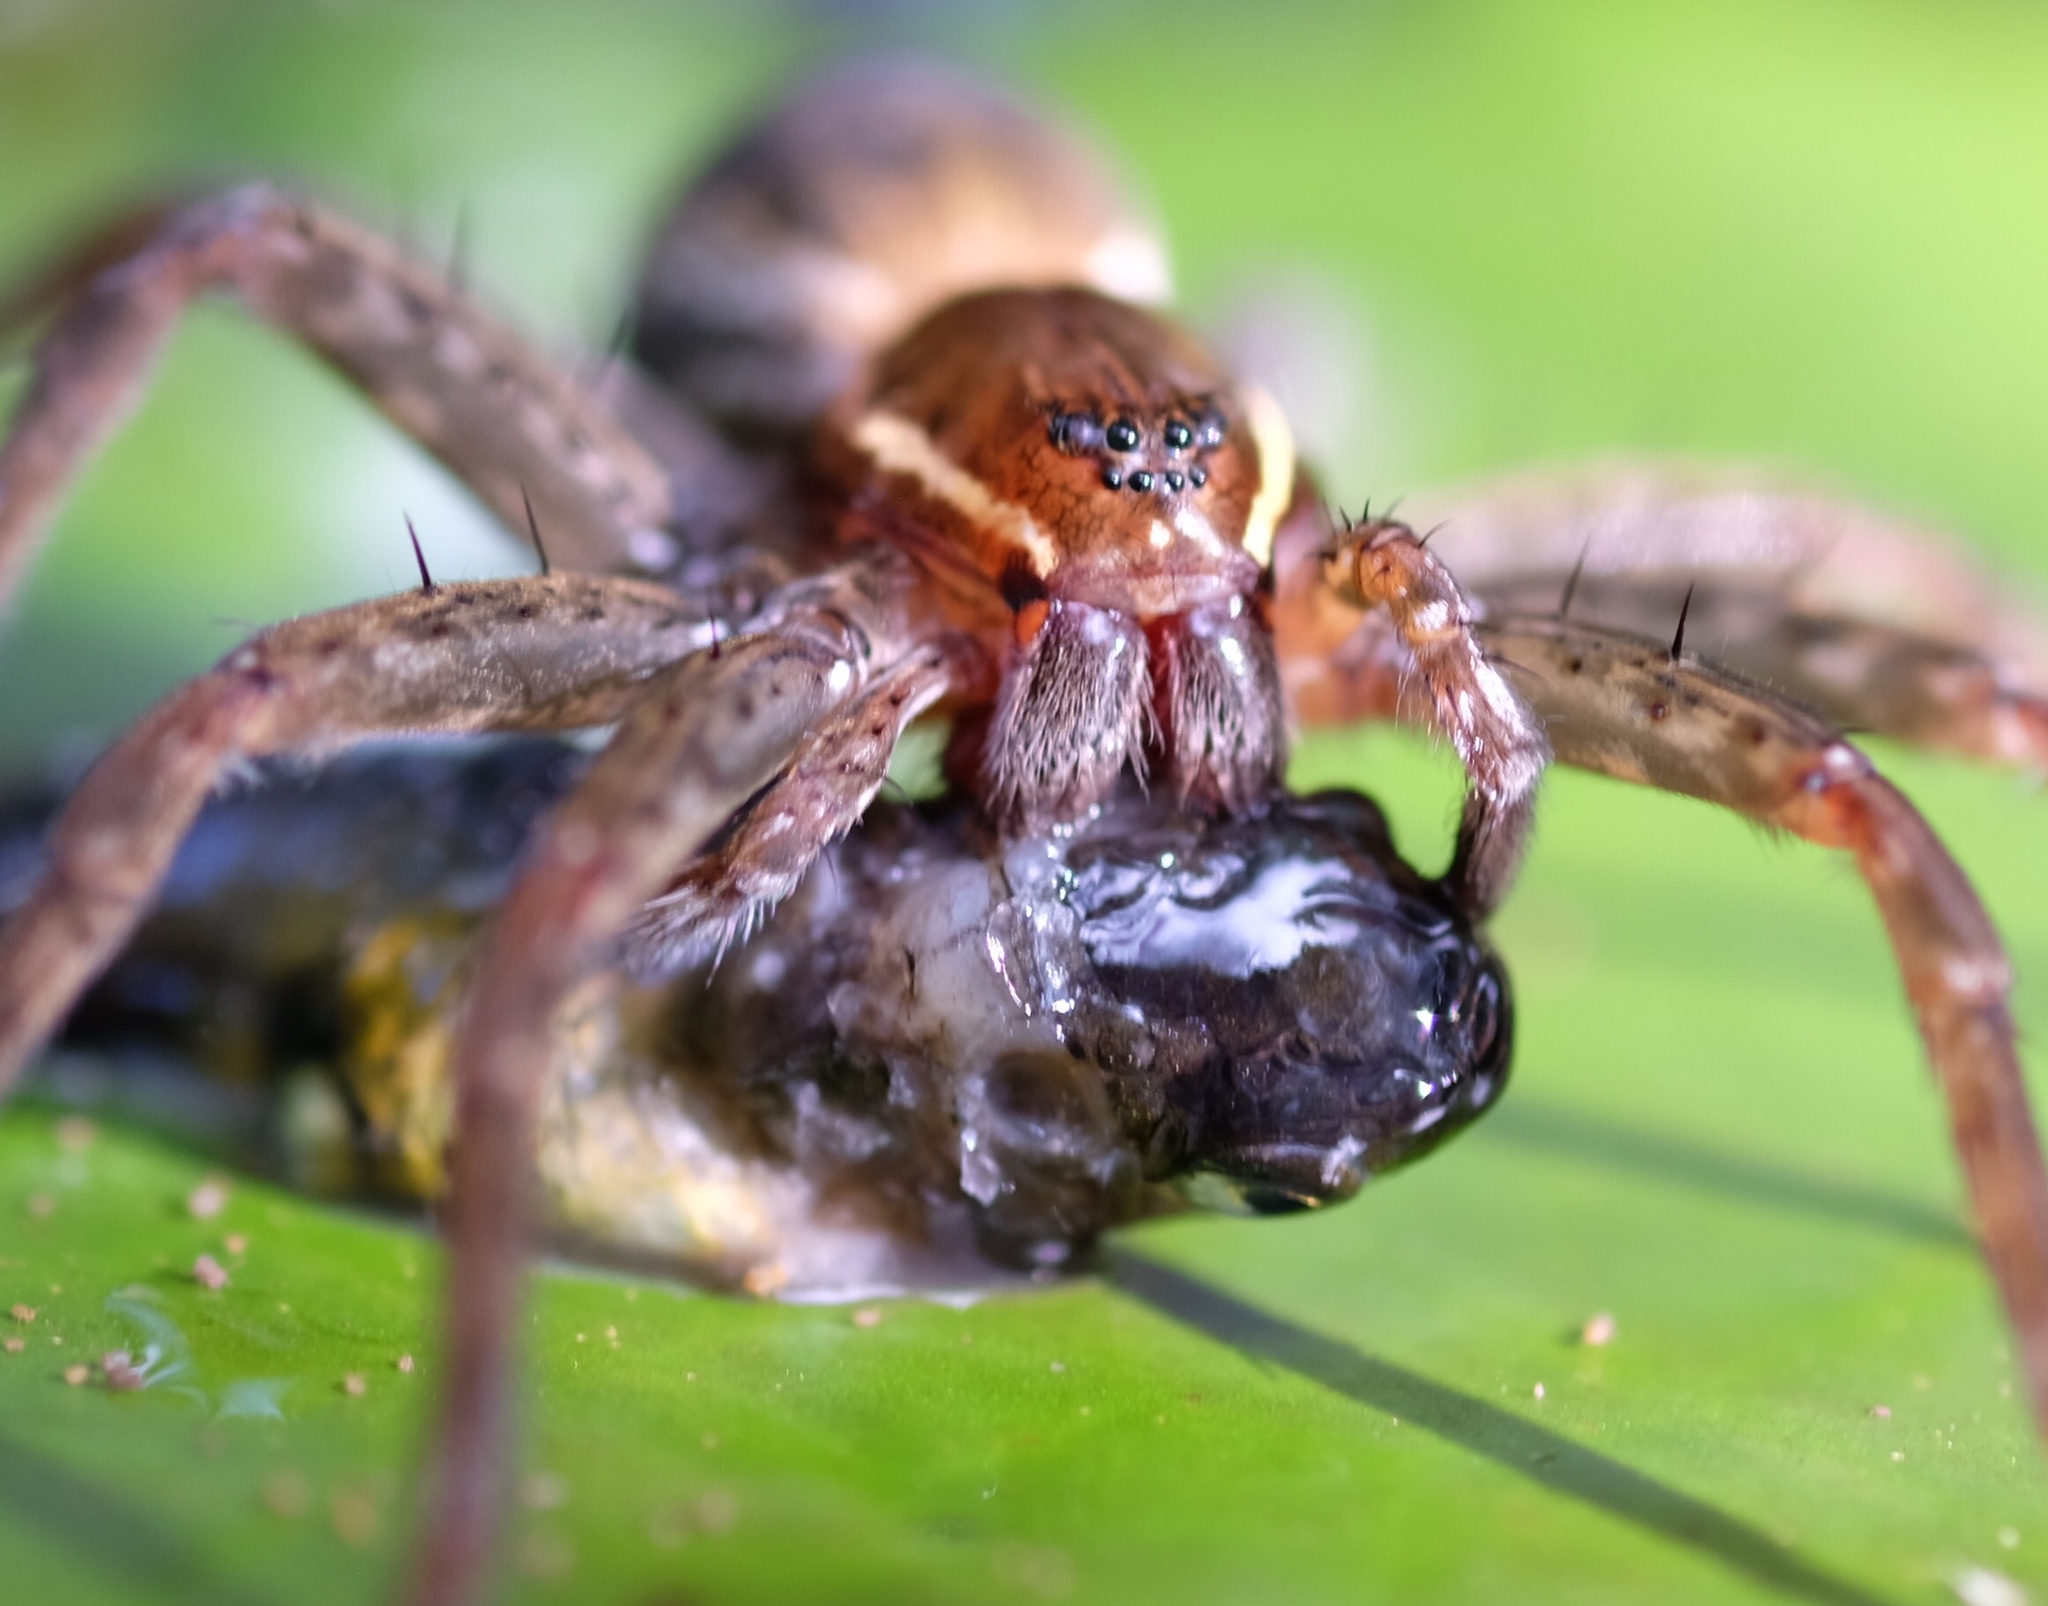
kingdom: Animalia
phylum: Arthropoda
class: Arachnida
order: Araneae
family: Pisauridae
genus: Dolomedes
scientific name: Dolomedes triton
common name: Six-spotted fishing spider
